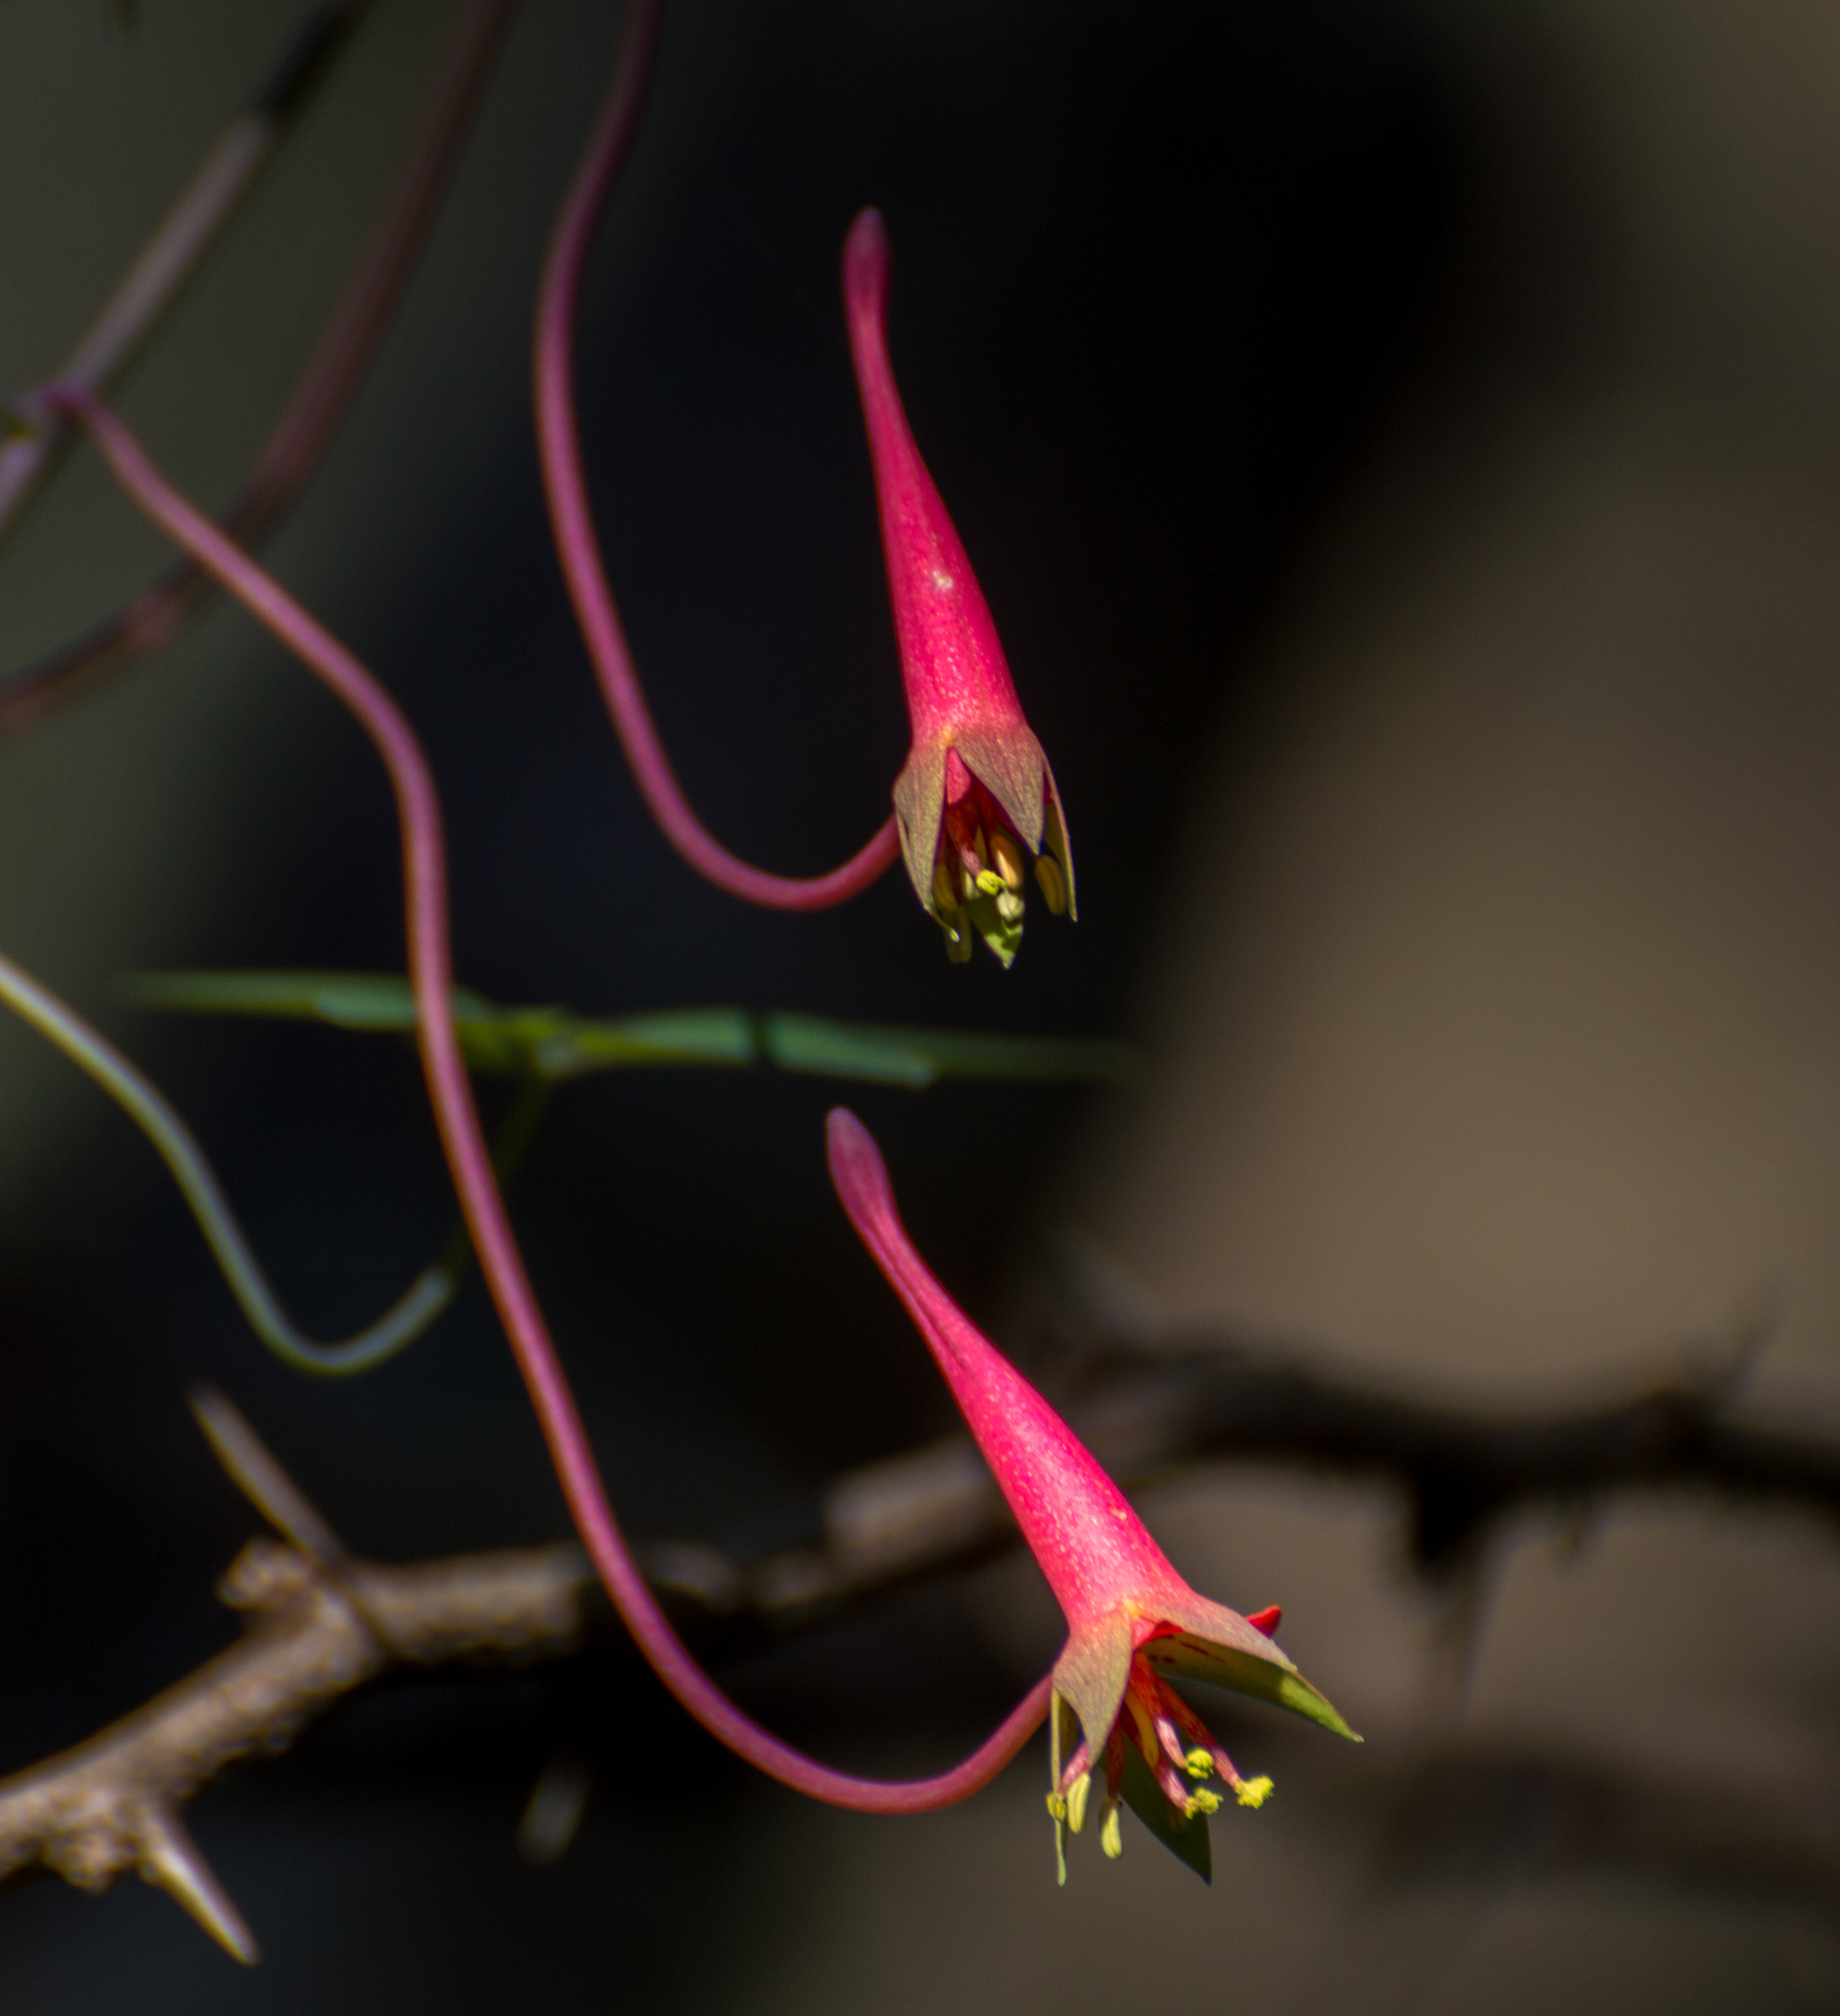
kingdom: Plantae
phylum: Tracheophyta
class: Magnoliopsida
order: Brassicales
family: Tropaeolaceae
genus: Tropaeolum
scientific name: Tropaeolum pentaphyllum
